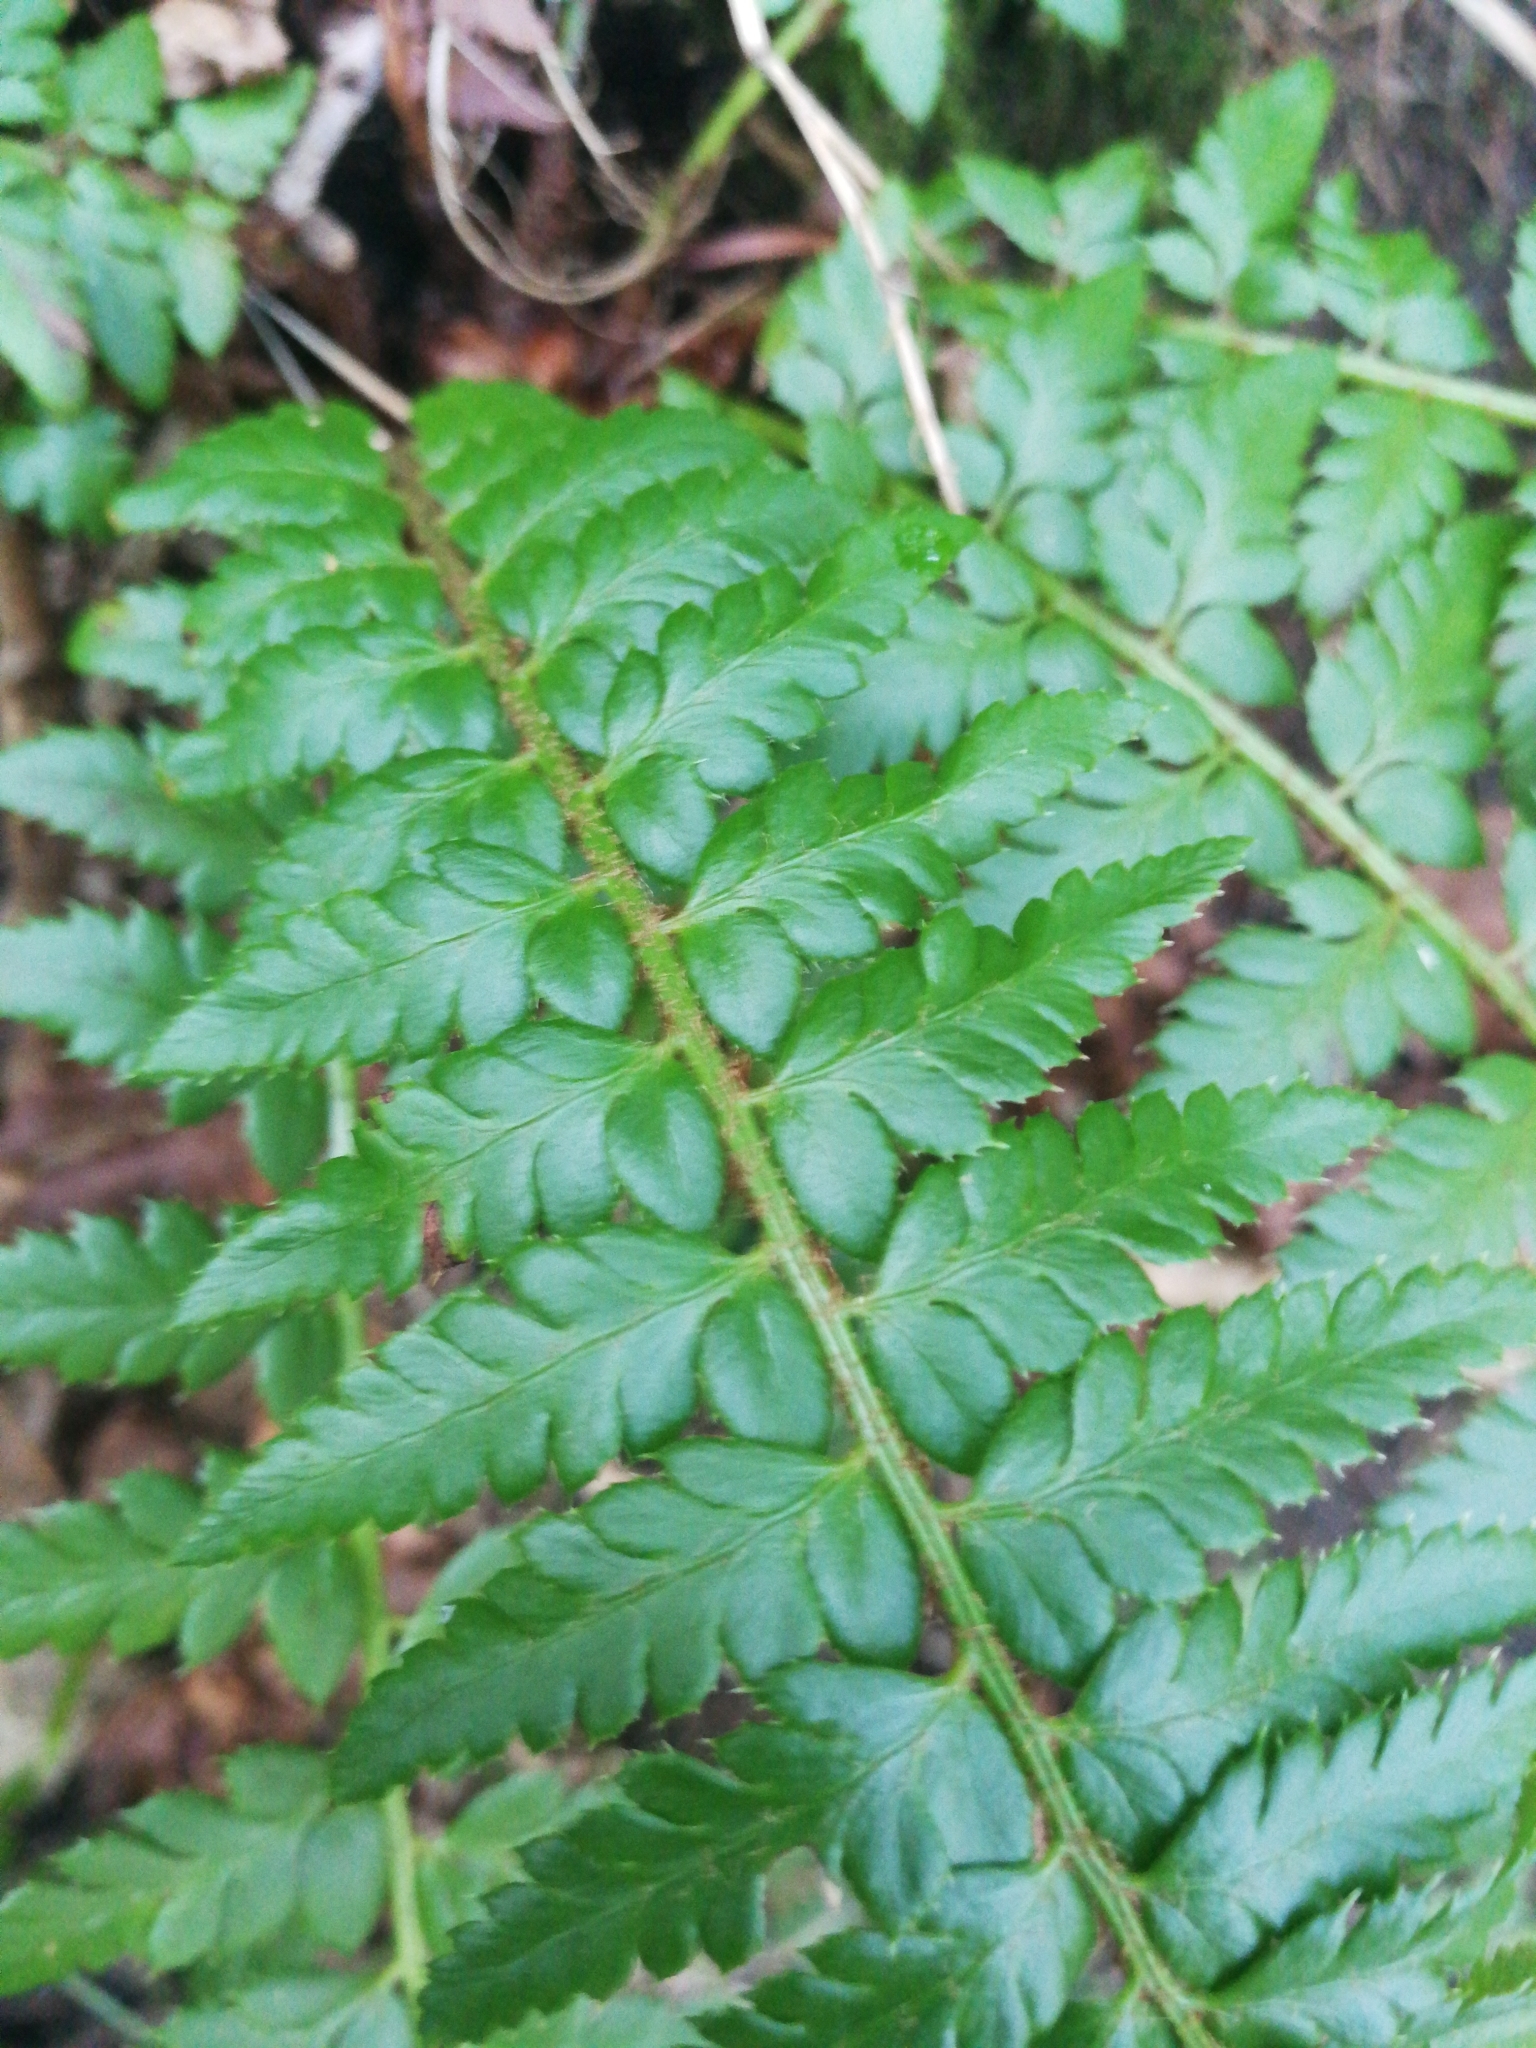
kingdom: Plantae
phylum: Tracheophyta
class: Polypodiopsida
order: Polypodiales
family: Dryopteridaceae
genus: Polystichum
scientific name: Polystichum aculeatum
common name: Hard shield-fern
